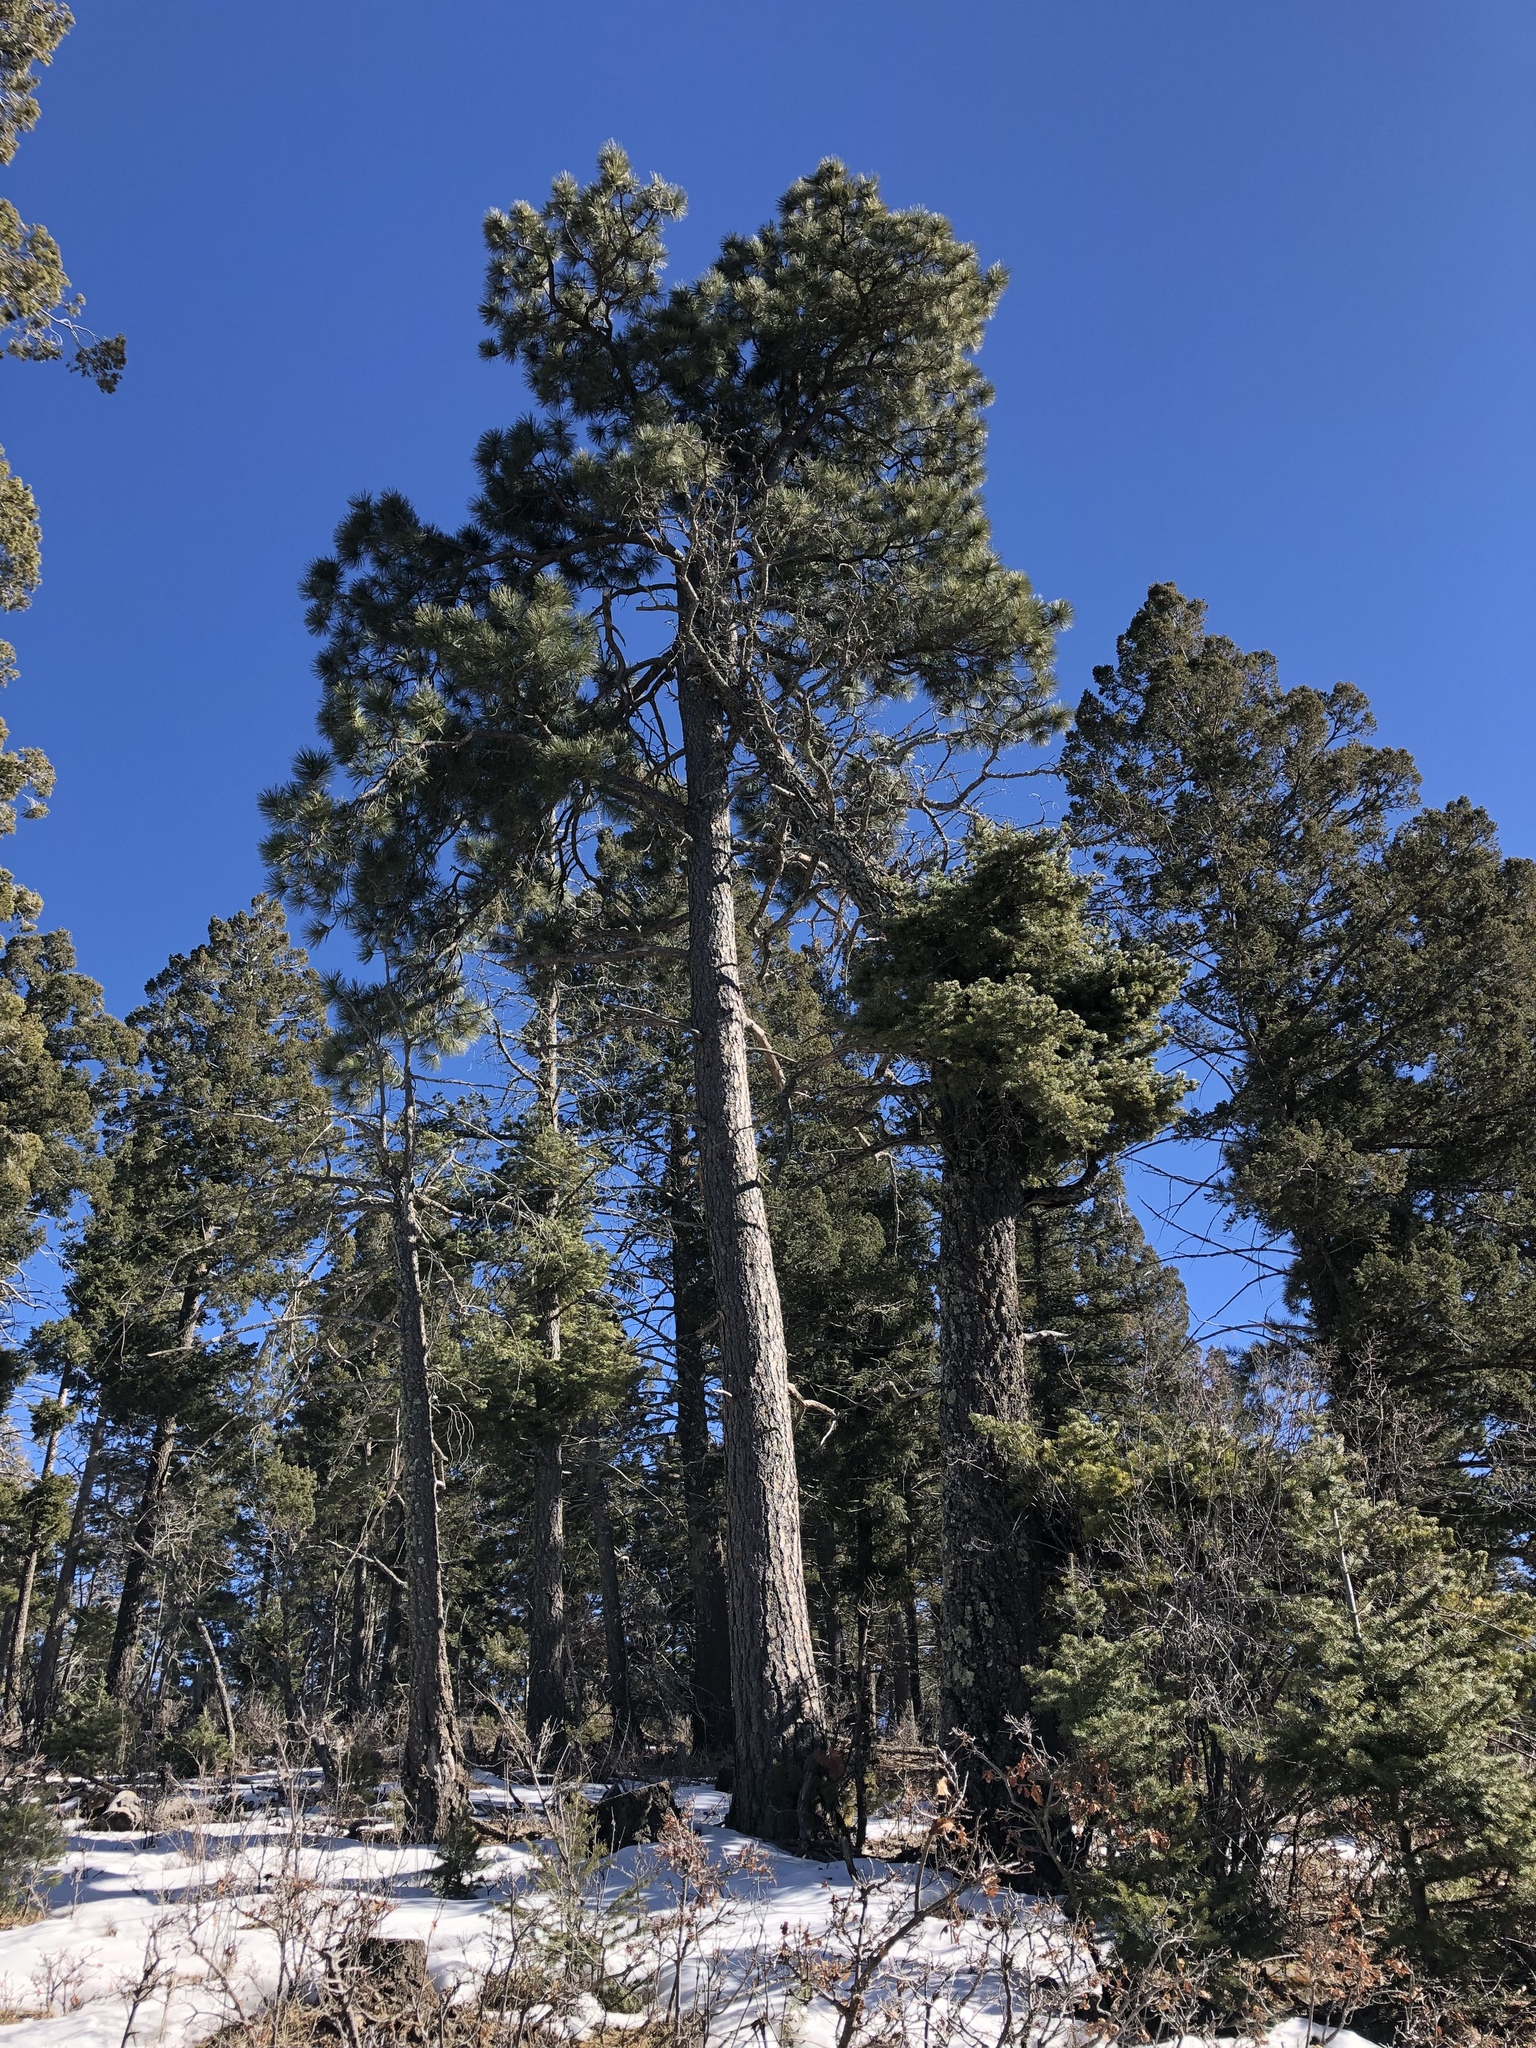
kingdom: Plantae
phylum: Tracheophyta
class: Pinopsida
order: Pinales
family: Pinaceae
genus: Pinus
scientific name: Pinus ponderosa
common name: Western yellow-pine
